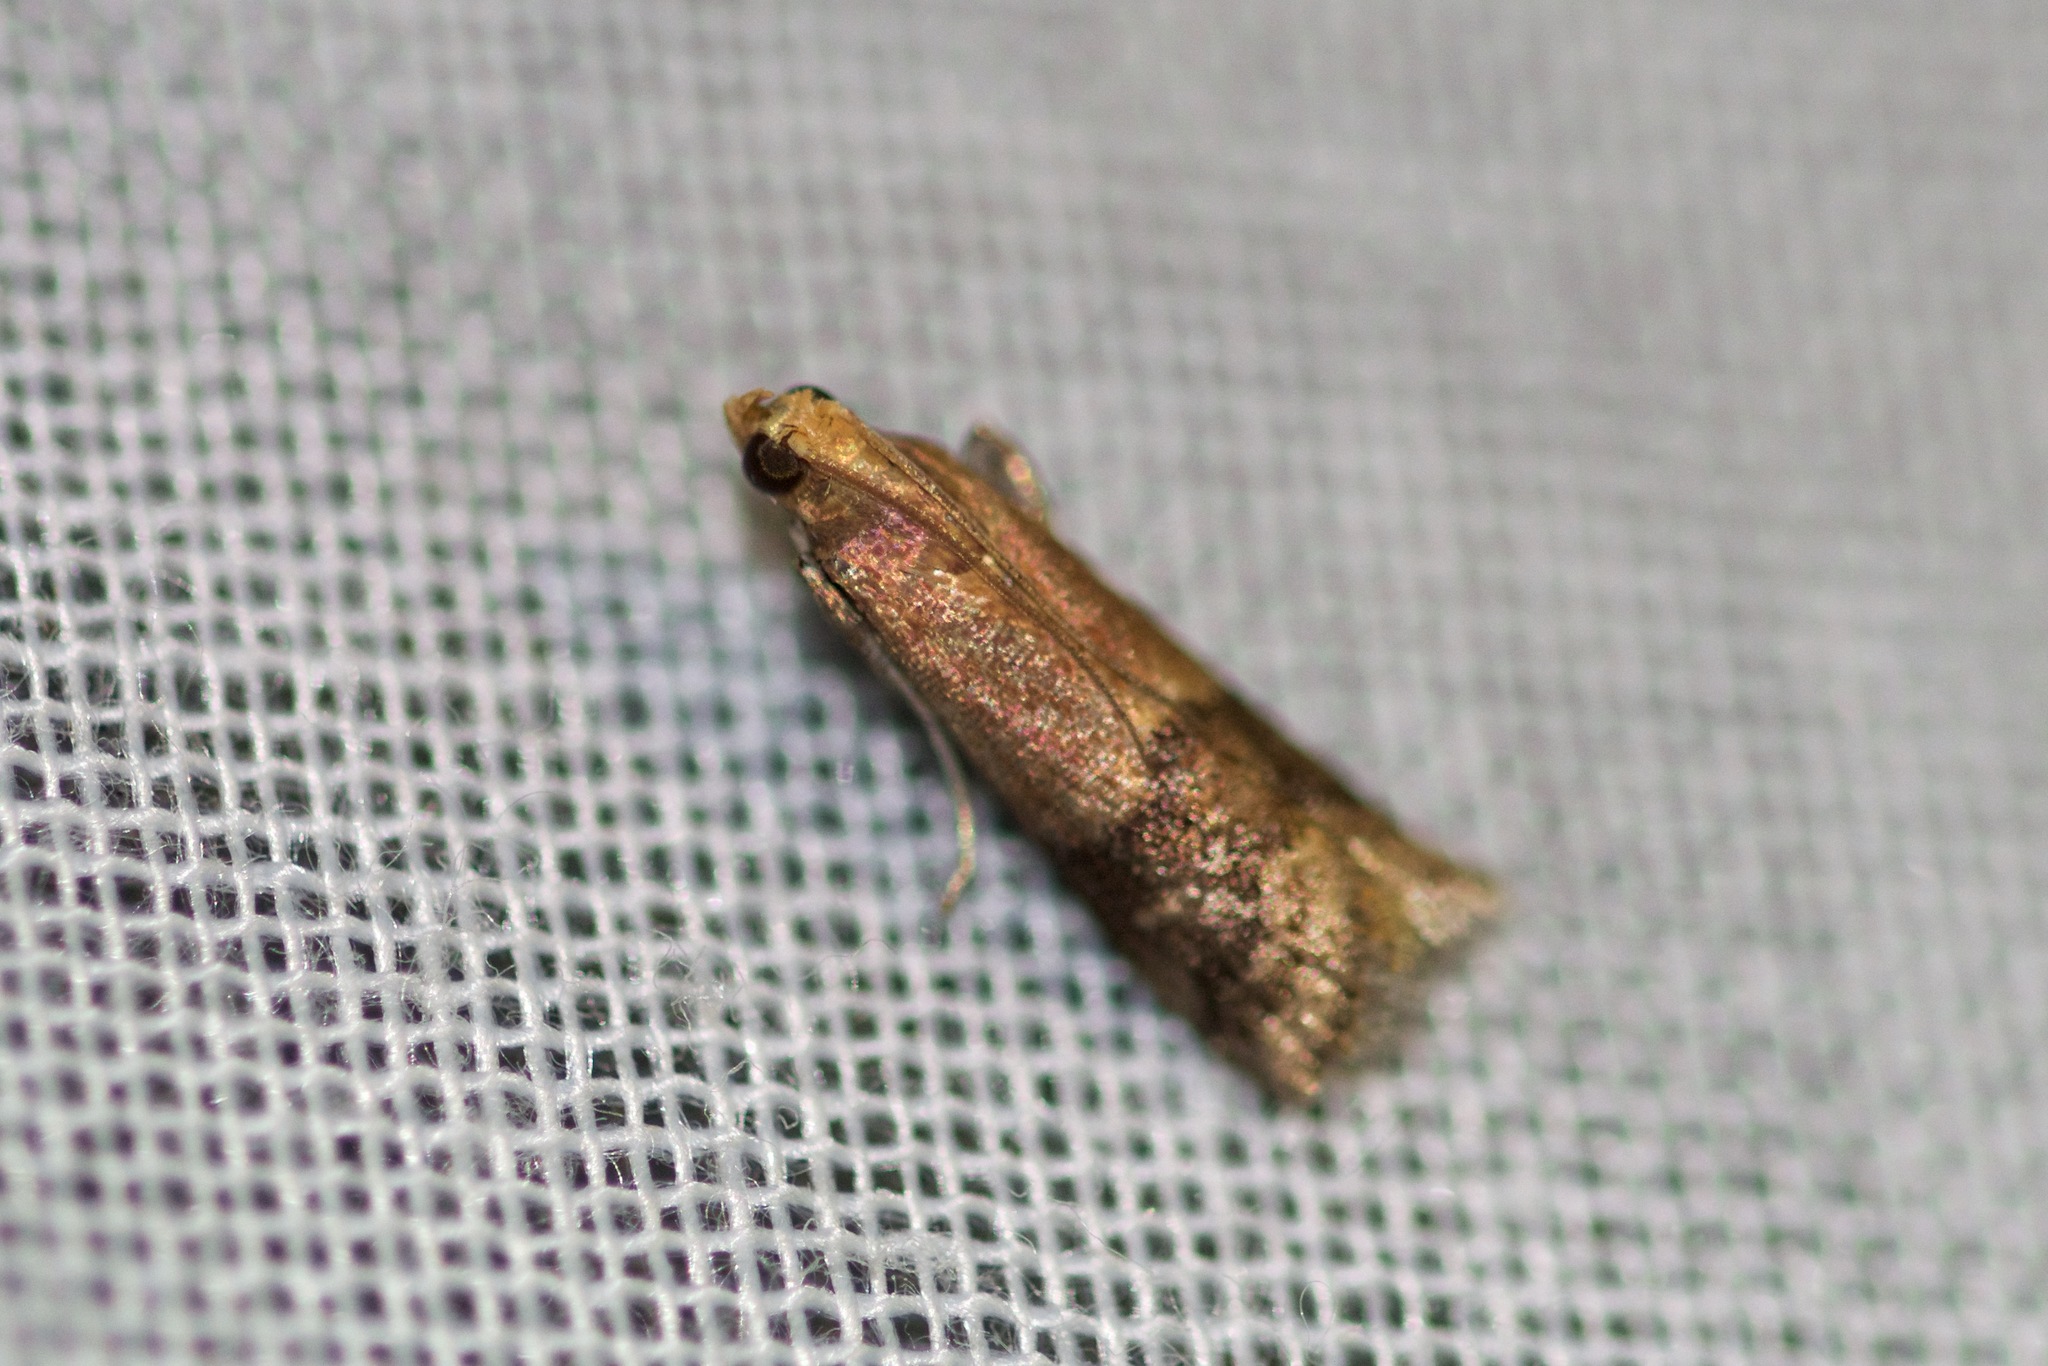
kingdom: Animalia
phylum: Arthropoda
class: Insecta
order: Lepidoptera
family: Pyralidae
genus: Eulogia
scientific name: Eulogia ochrifrontella
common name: Broad-banded eulogia moth
